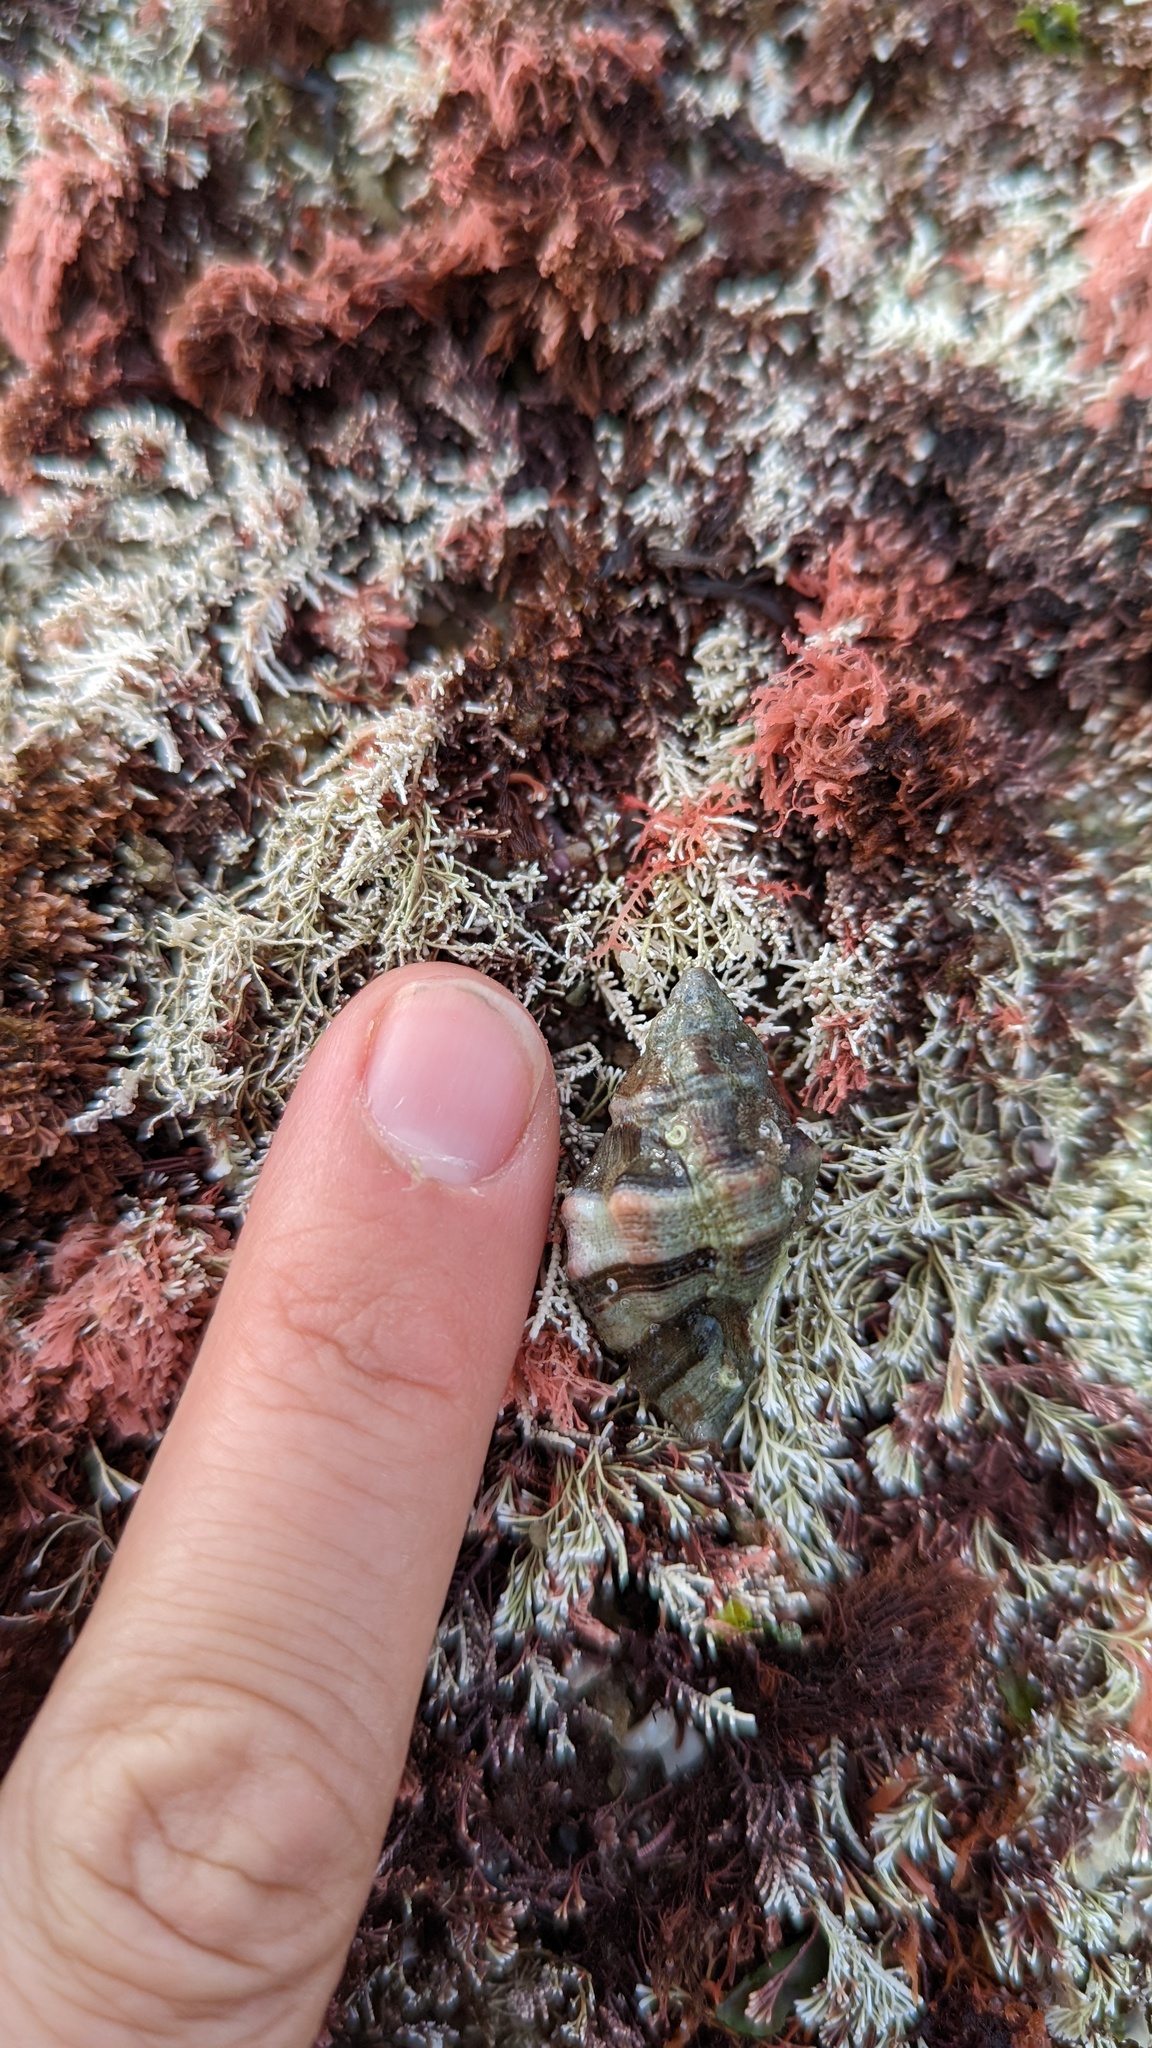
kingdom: Animalia
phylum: Mollusca
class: Gastropoda
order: Neogastropoda
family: Muricidae
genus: Ceratostoma
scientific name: Ceratostoma nuttalli
